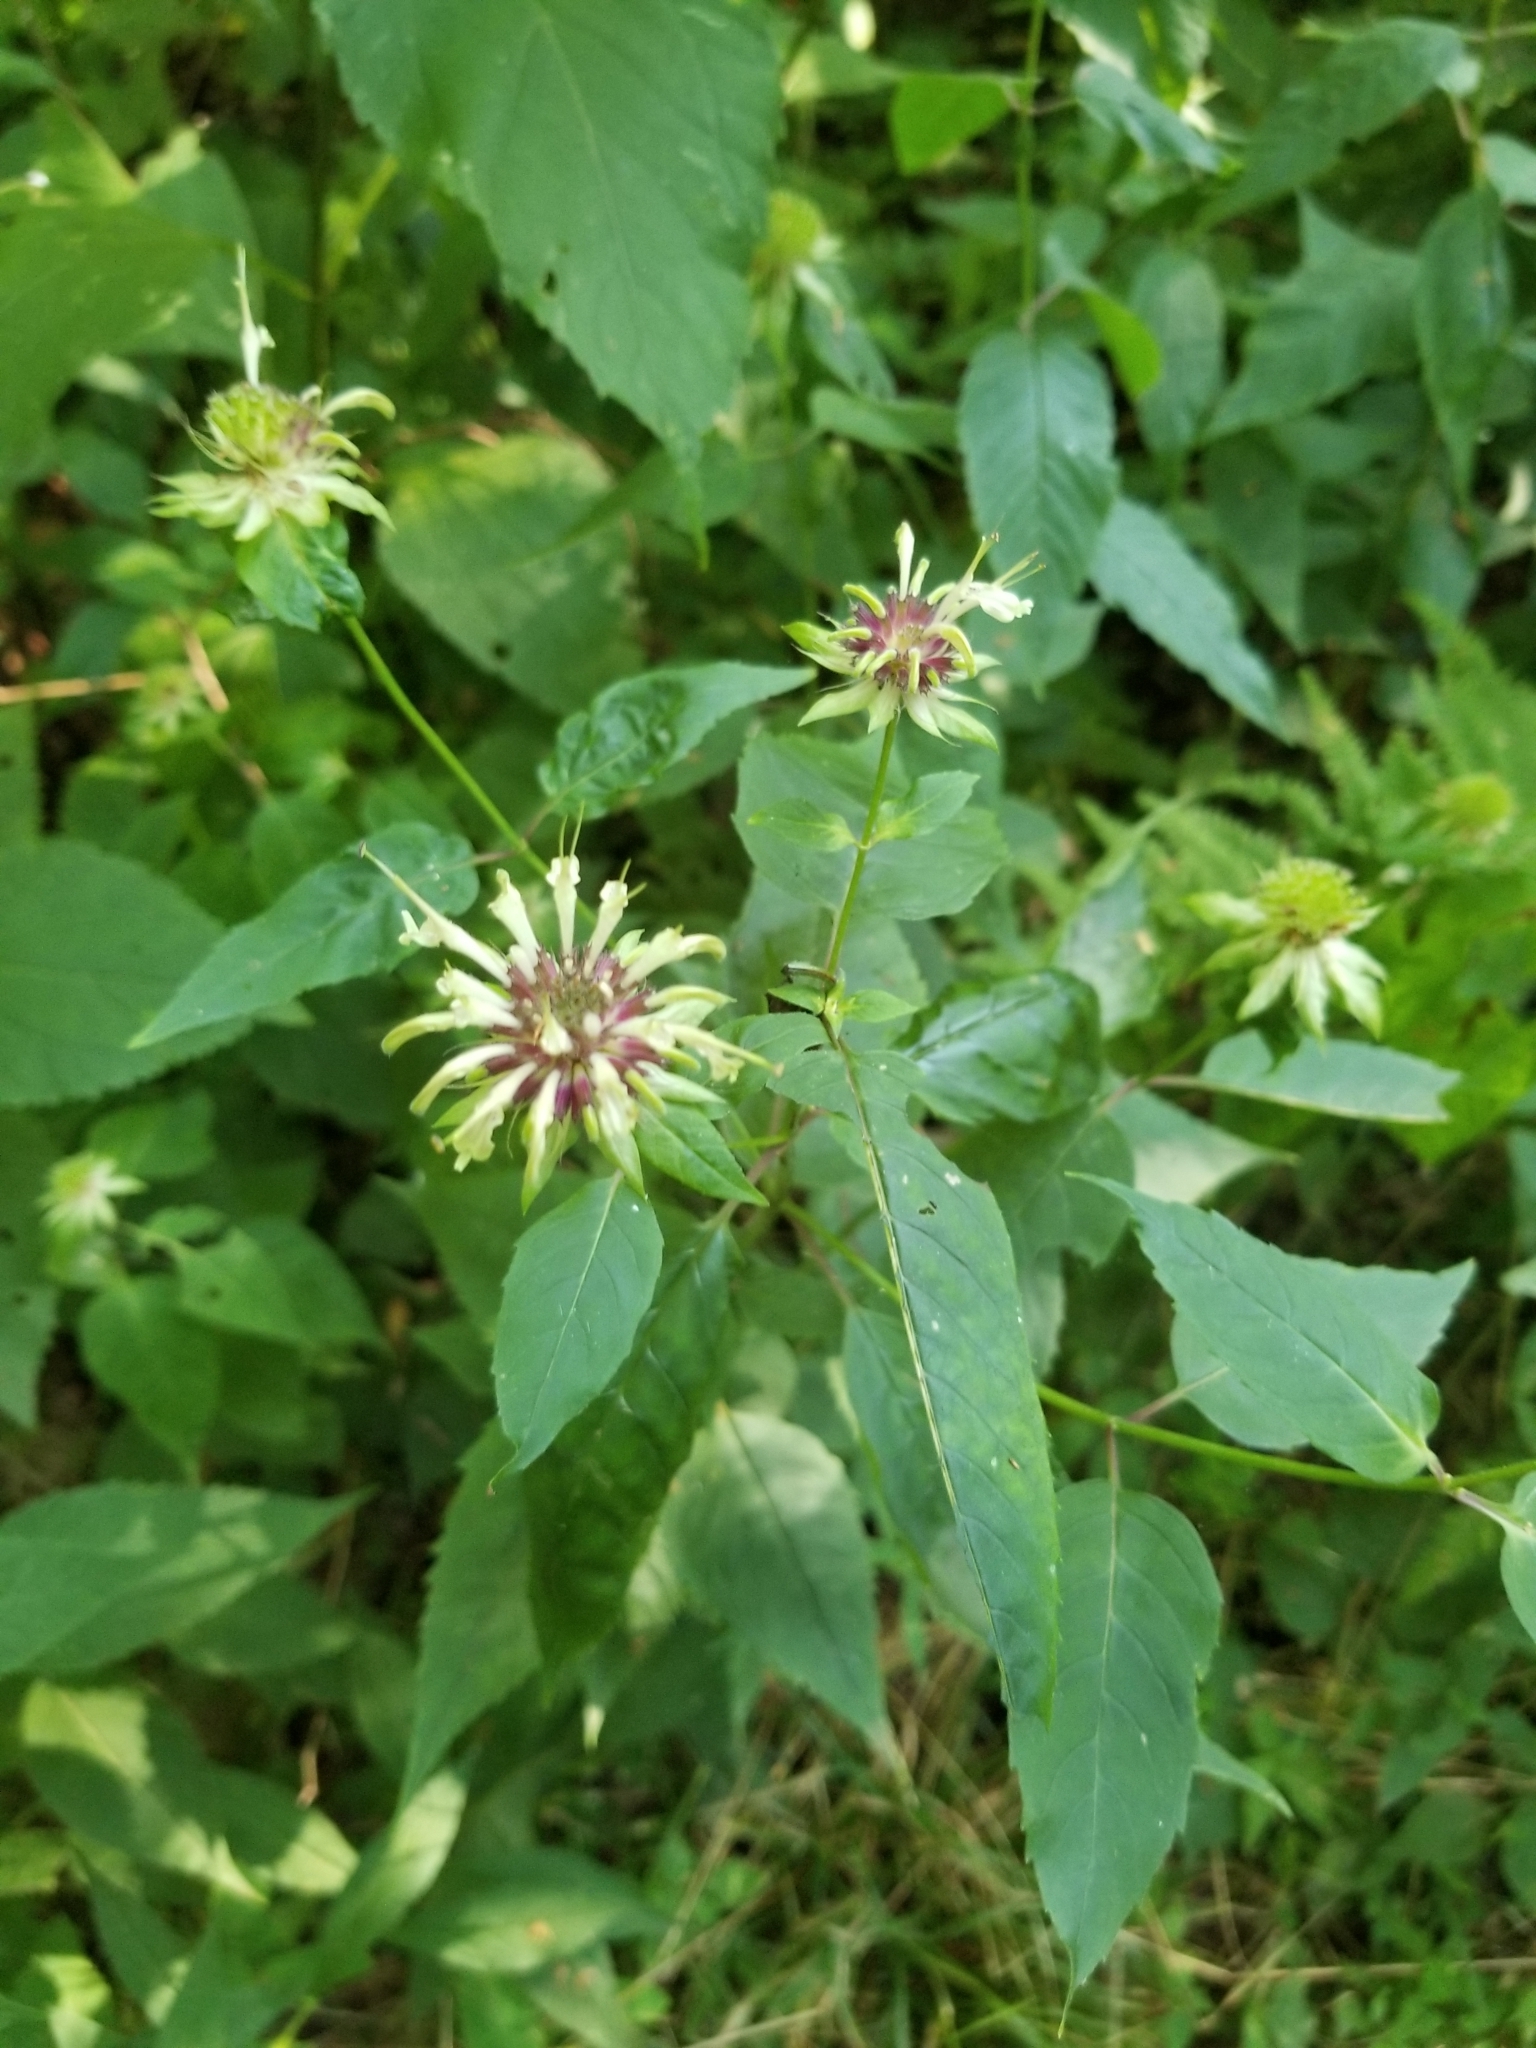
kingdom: Plantae
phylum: Tracheophyta
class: Magnoliopsida
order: Lamiales
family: Lamiaceae
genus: Monarda
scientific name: Monarda clinopodia
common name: Basil beebalm
